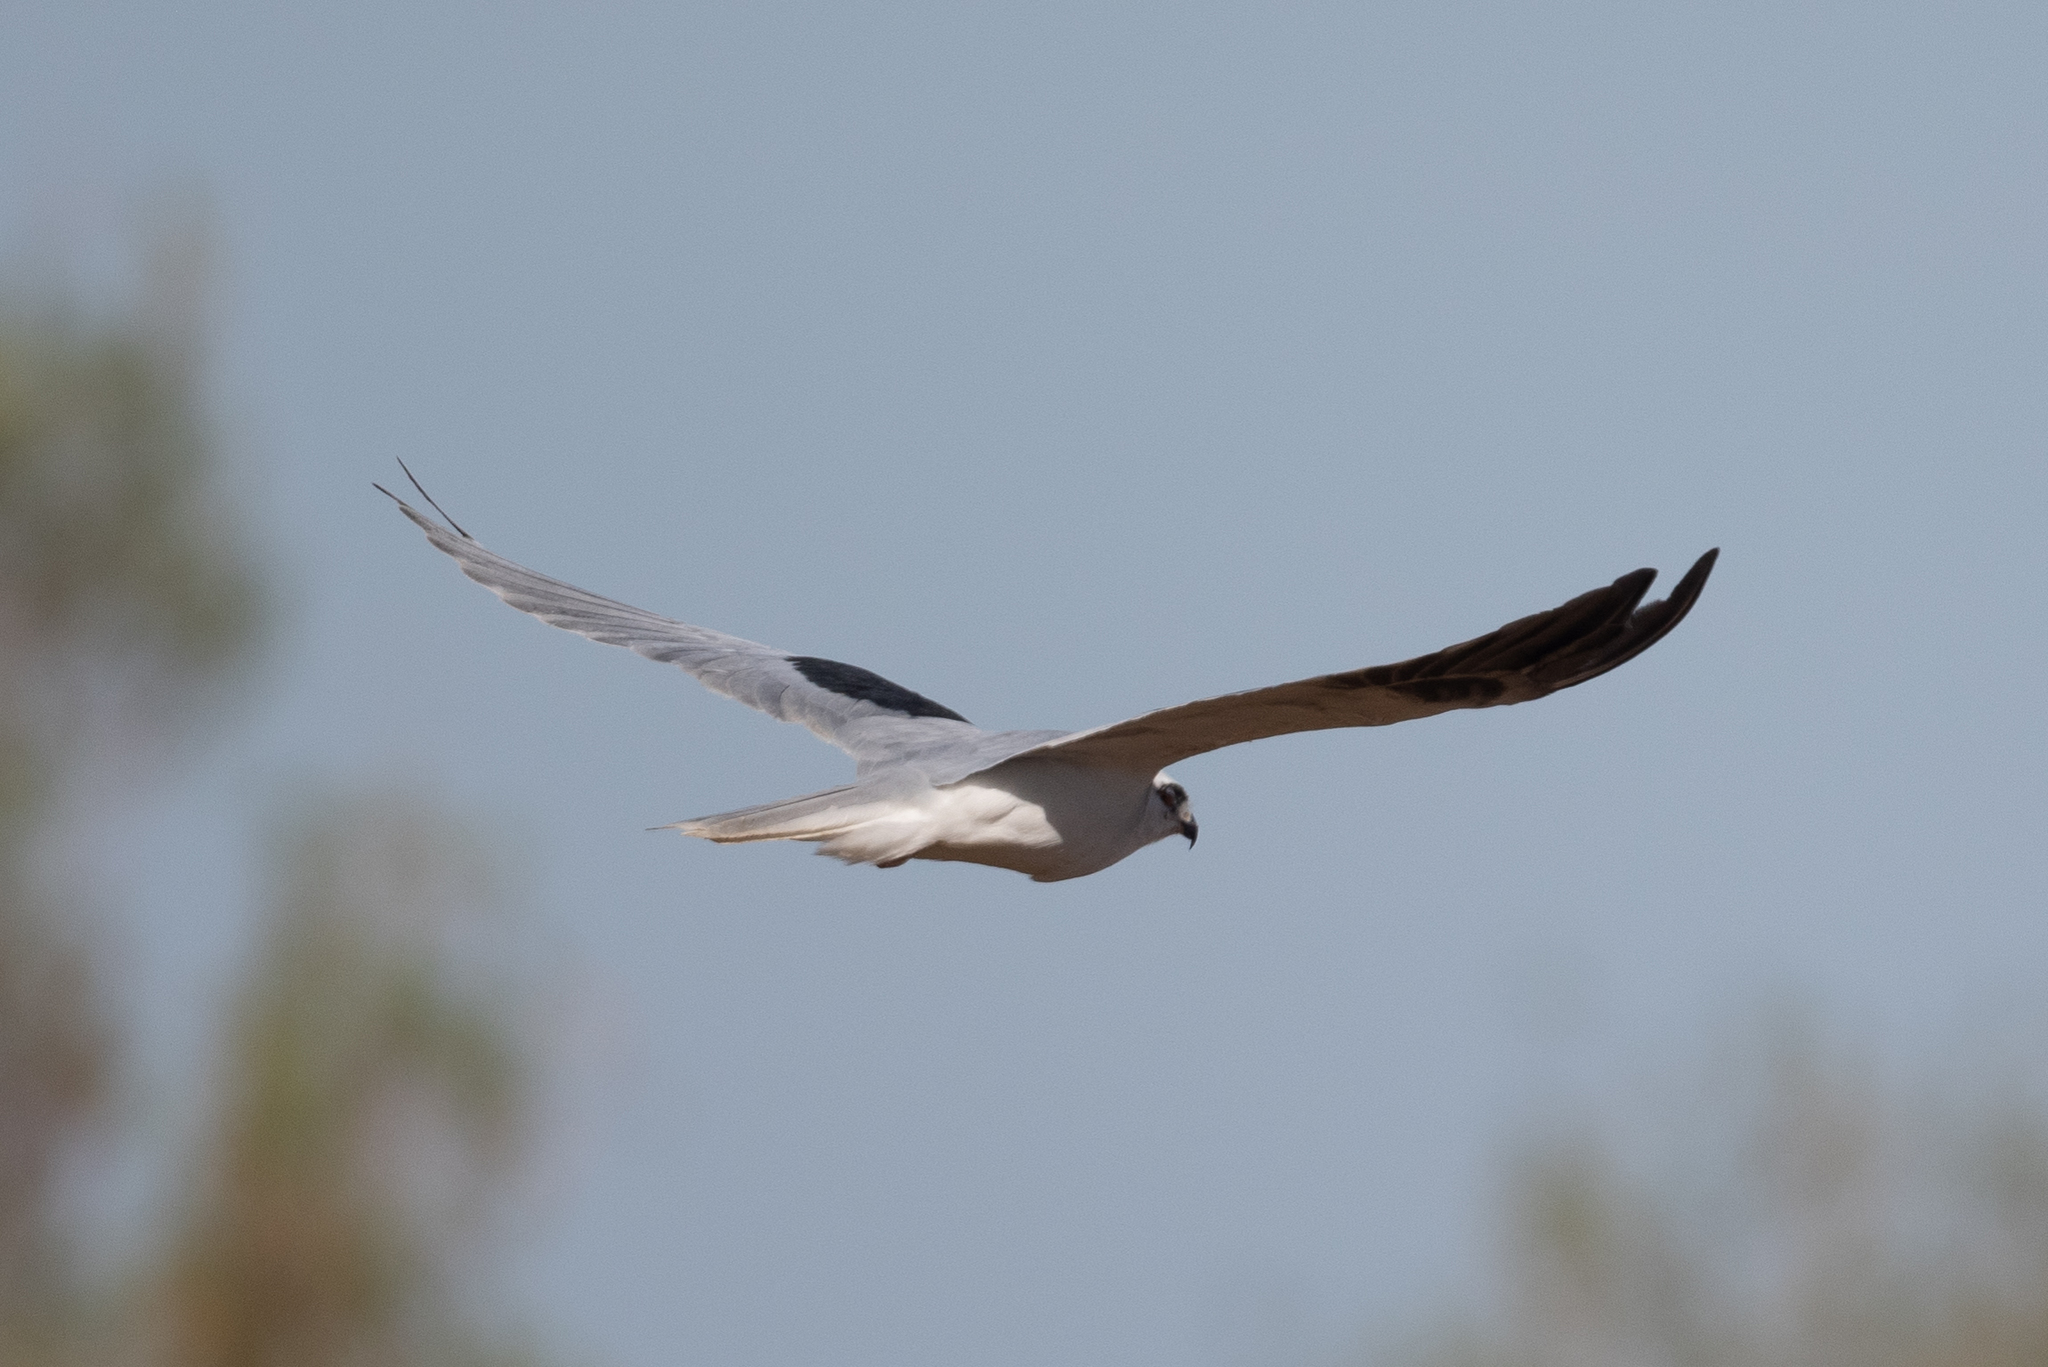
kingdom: Animalia
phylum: Chordata
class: Aves
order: Accipitriformes
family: Accipitridae
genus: Elanus
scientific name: Elanus leucurus
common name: White-tailed kite
